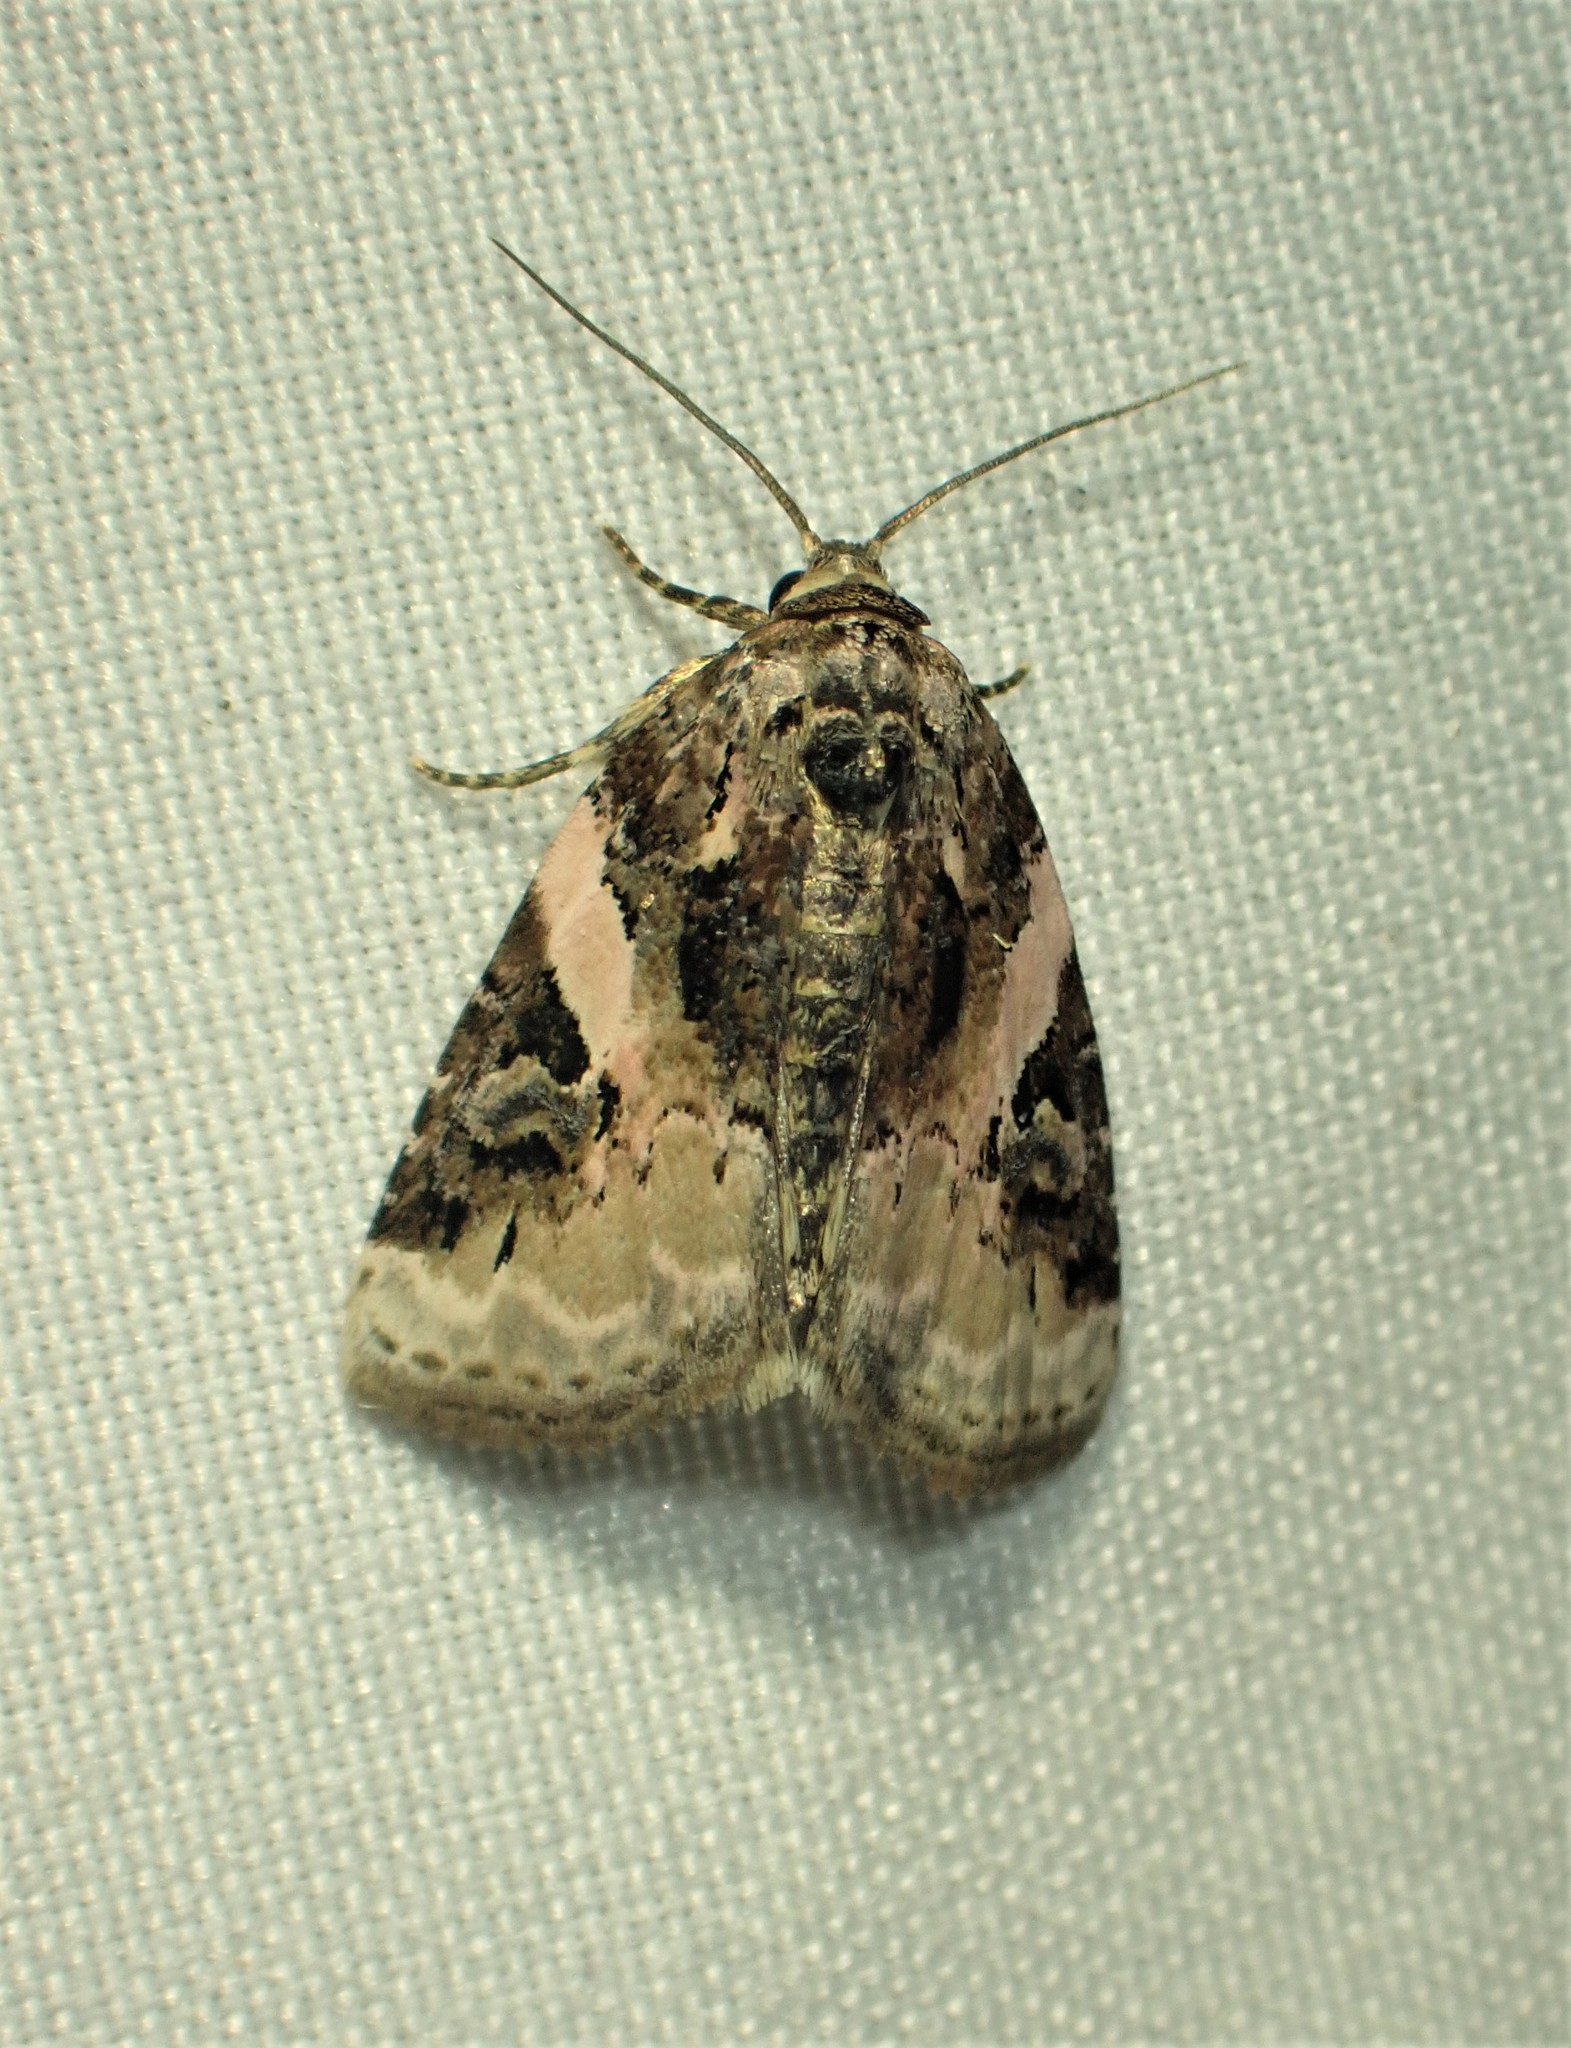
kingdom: Animalia
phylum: Arthropoda
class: Insecta
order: Lepidoptera
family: Noctuidae
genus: Pseudeustrotia
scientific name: Pseudeustrotia carneola
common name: Pink-barred lithacodia moth
